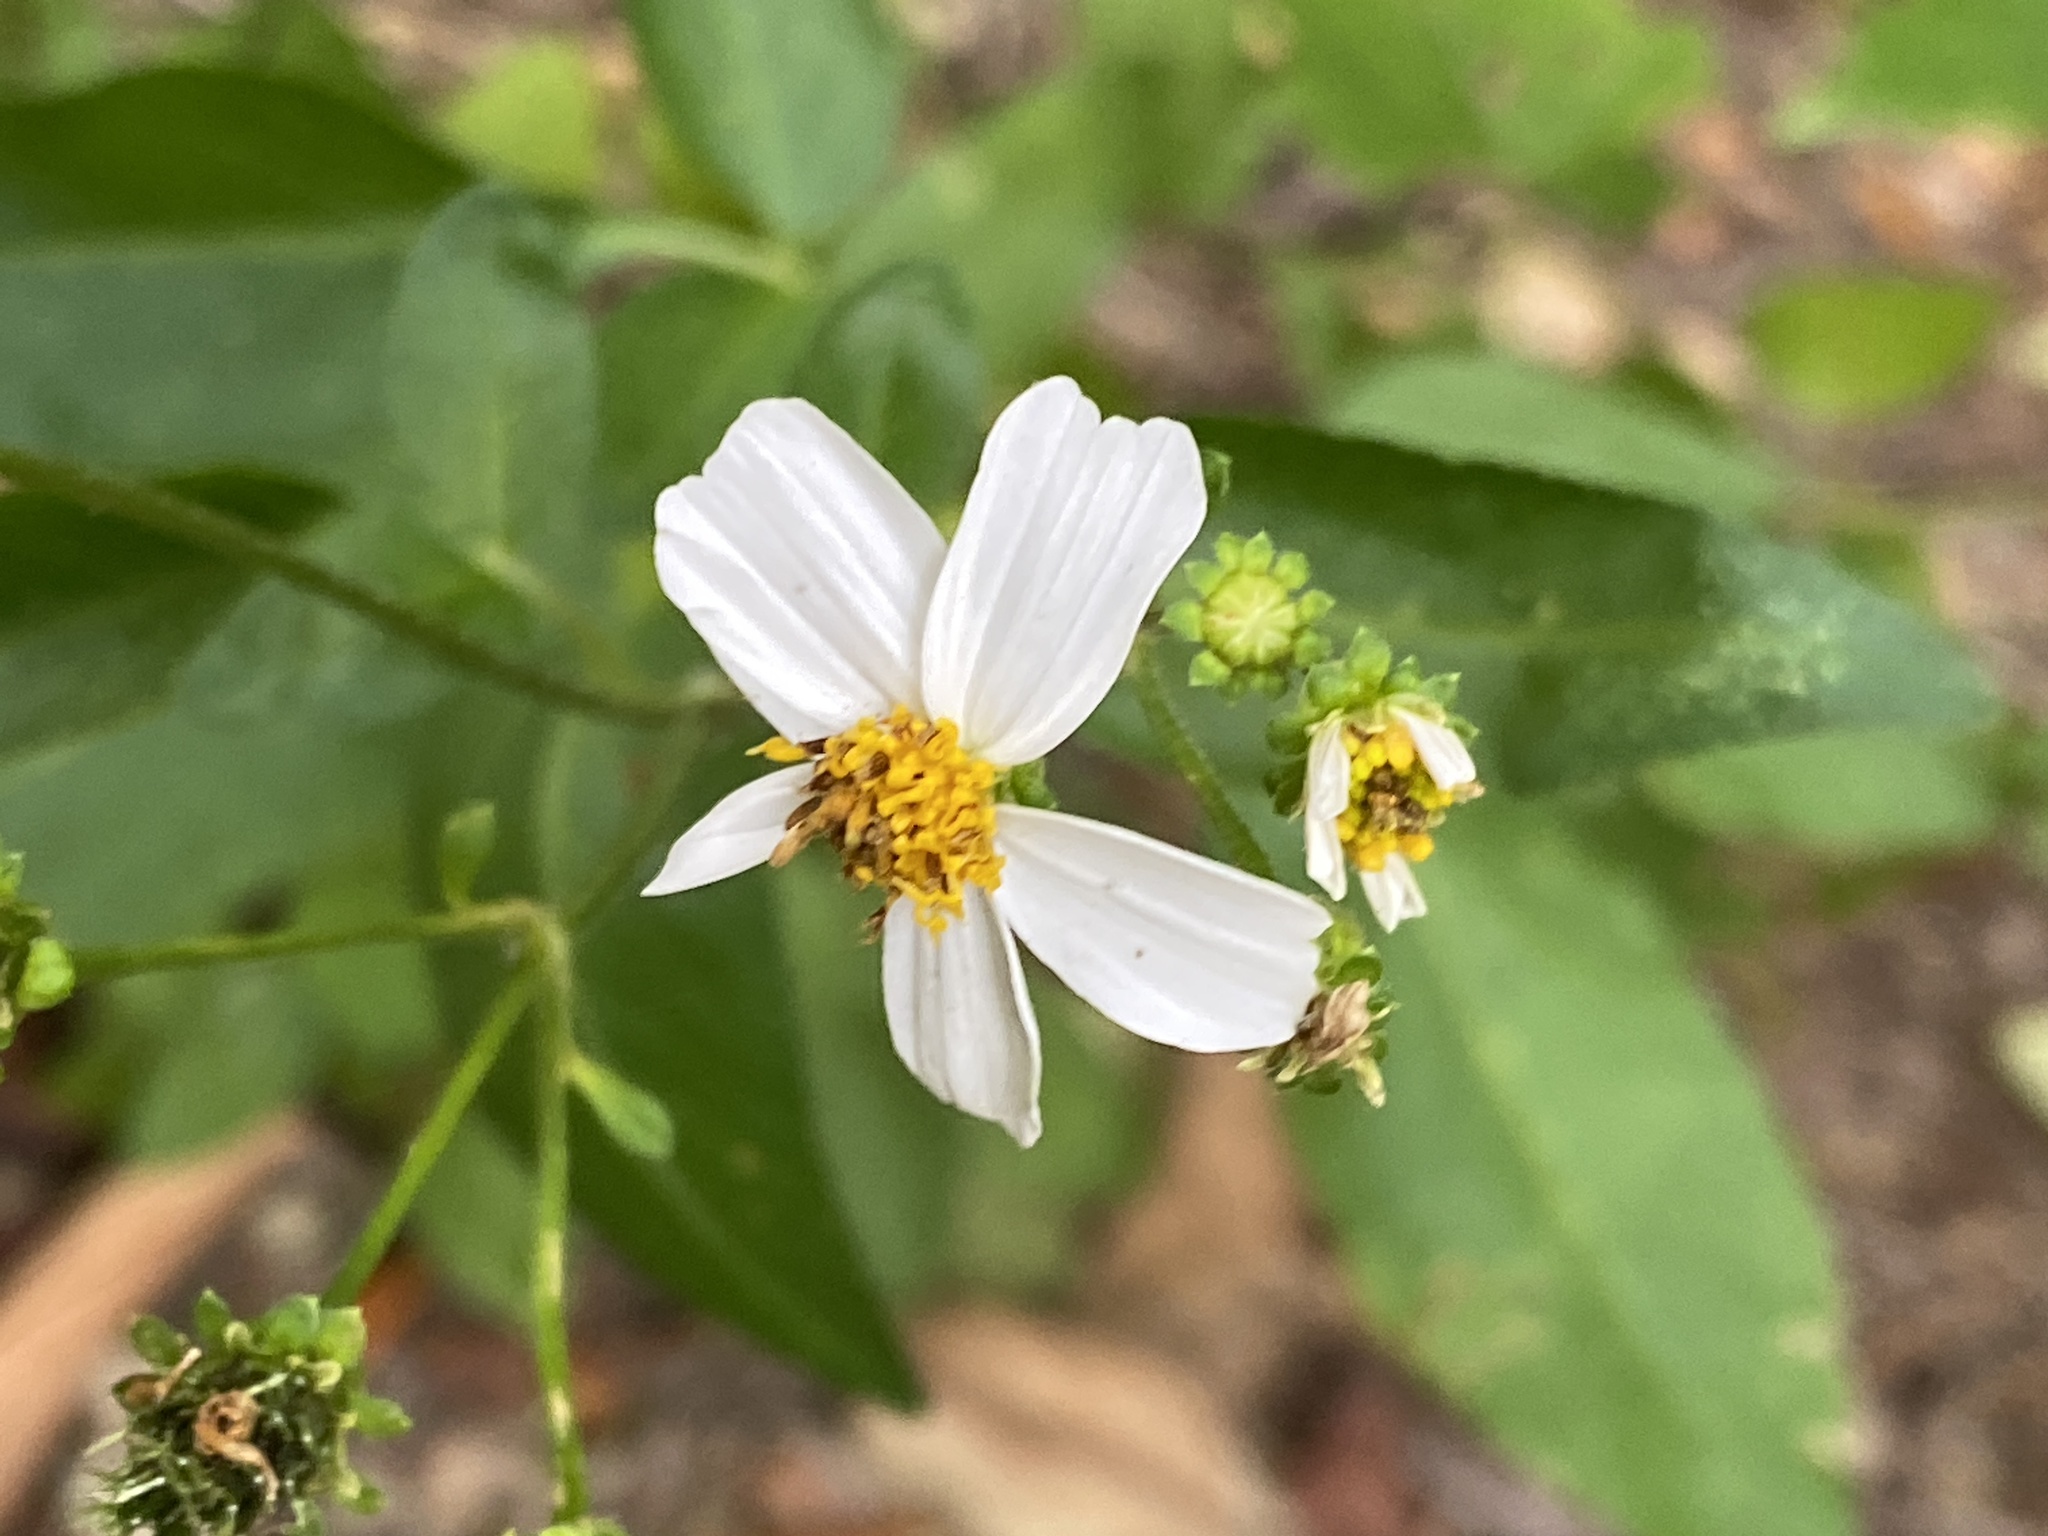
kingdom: Plantae
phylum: Tracheophyta
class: Magnoliopsida
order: Asterales
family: Asteraceae
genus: Bidens
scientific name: Bidens alba
